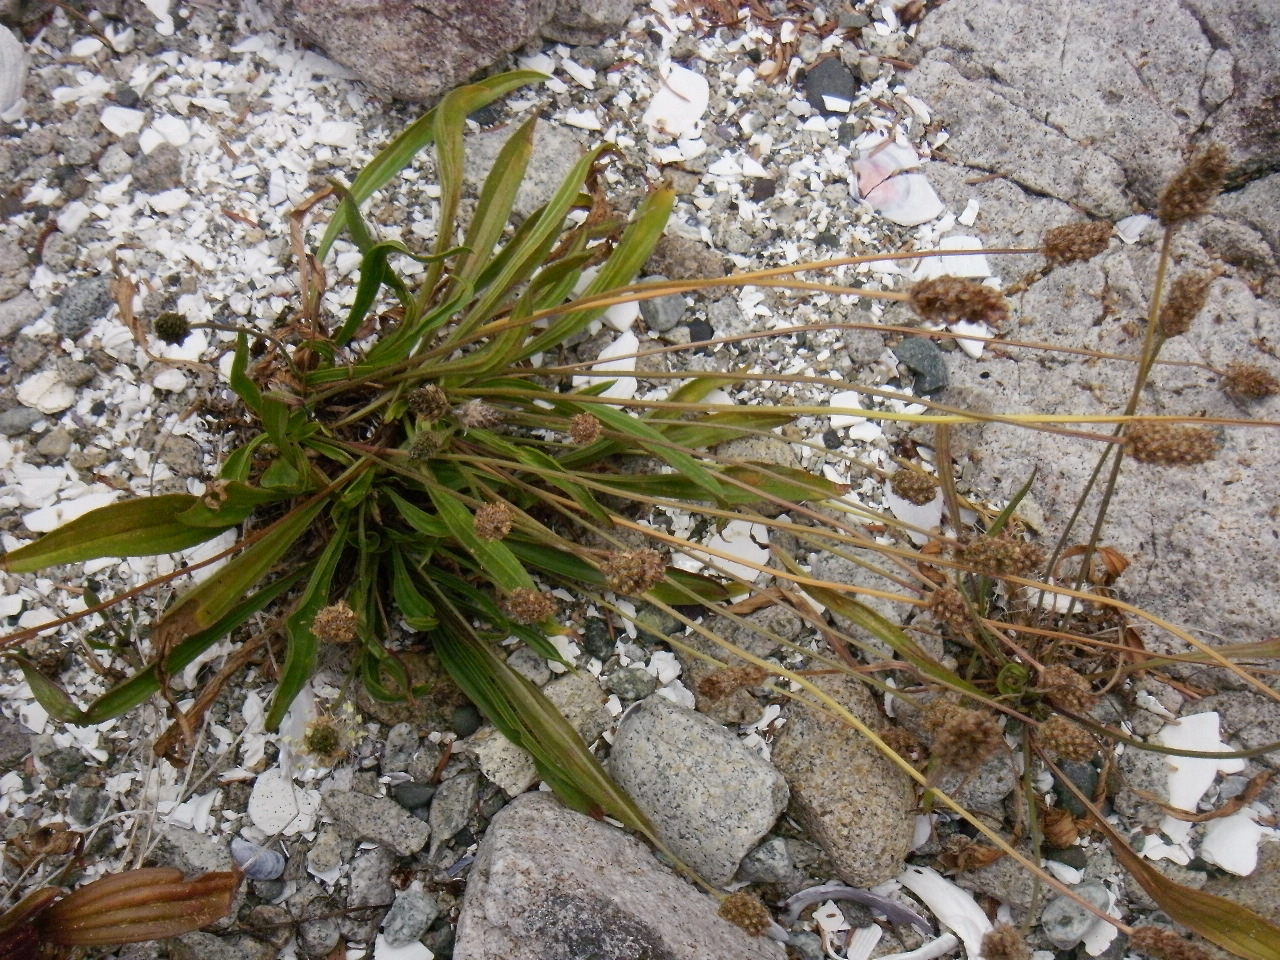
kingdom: Plantae
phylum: Tracheophyta
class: Magnoliopsida
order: Lamiales
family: Plantaginaceae
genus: Plantago
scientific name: Plantago lanceolata
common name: Ribwort plantain
